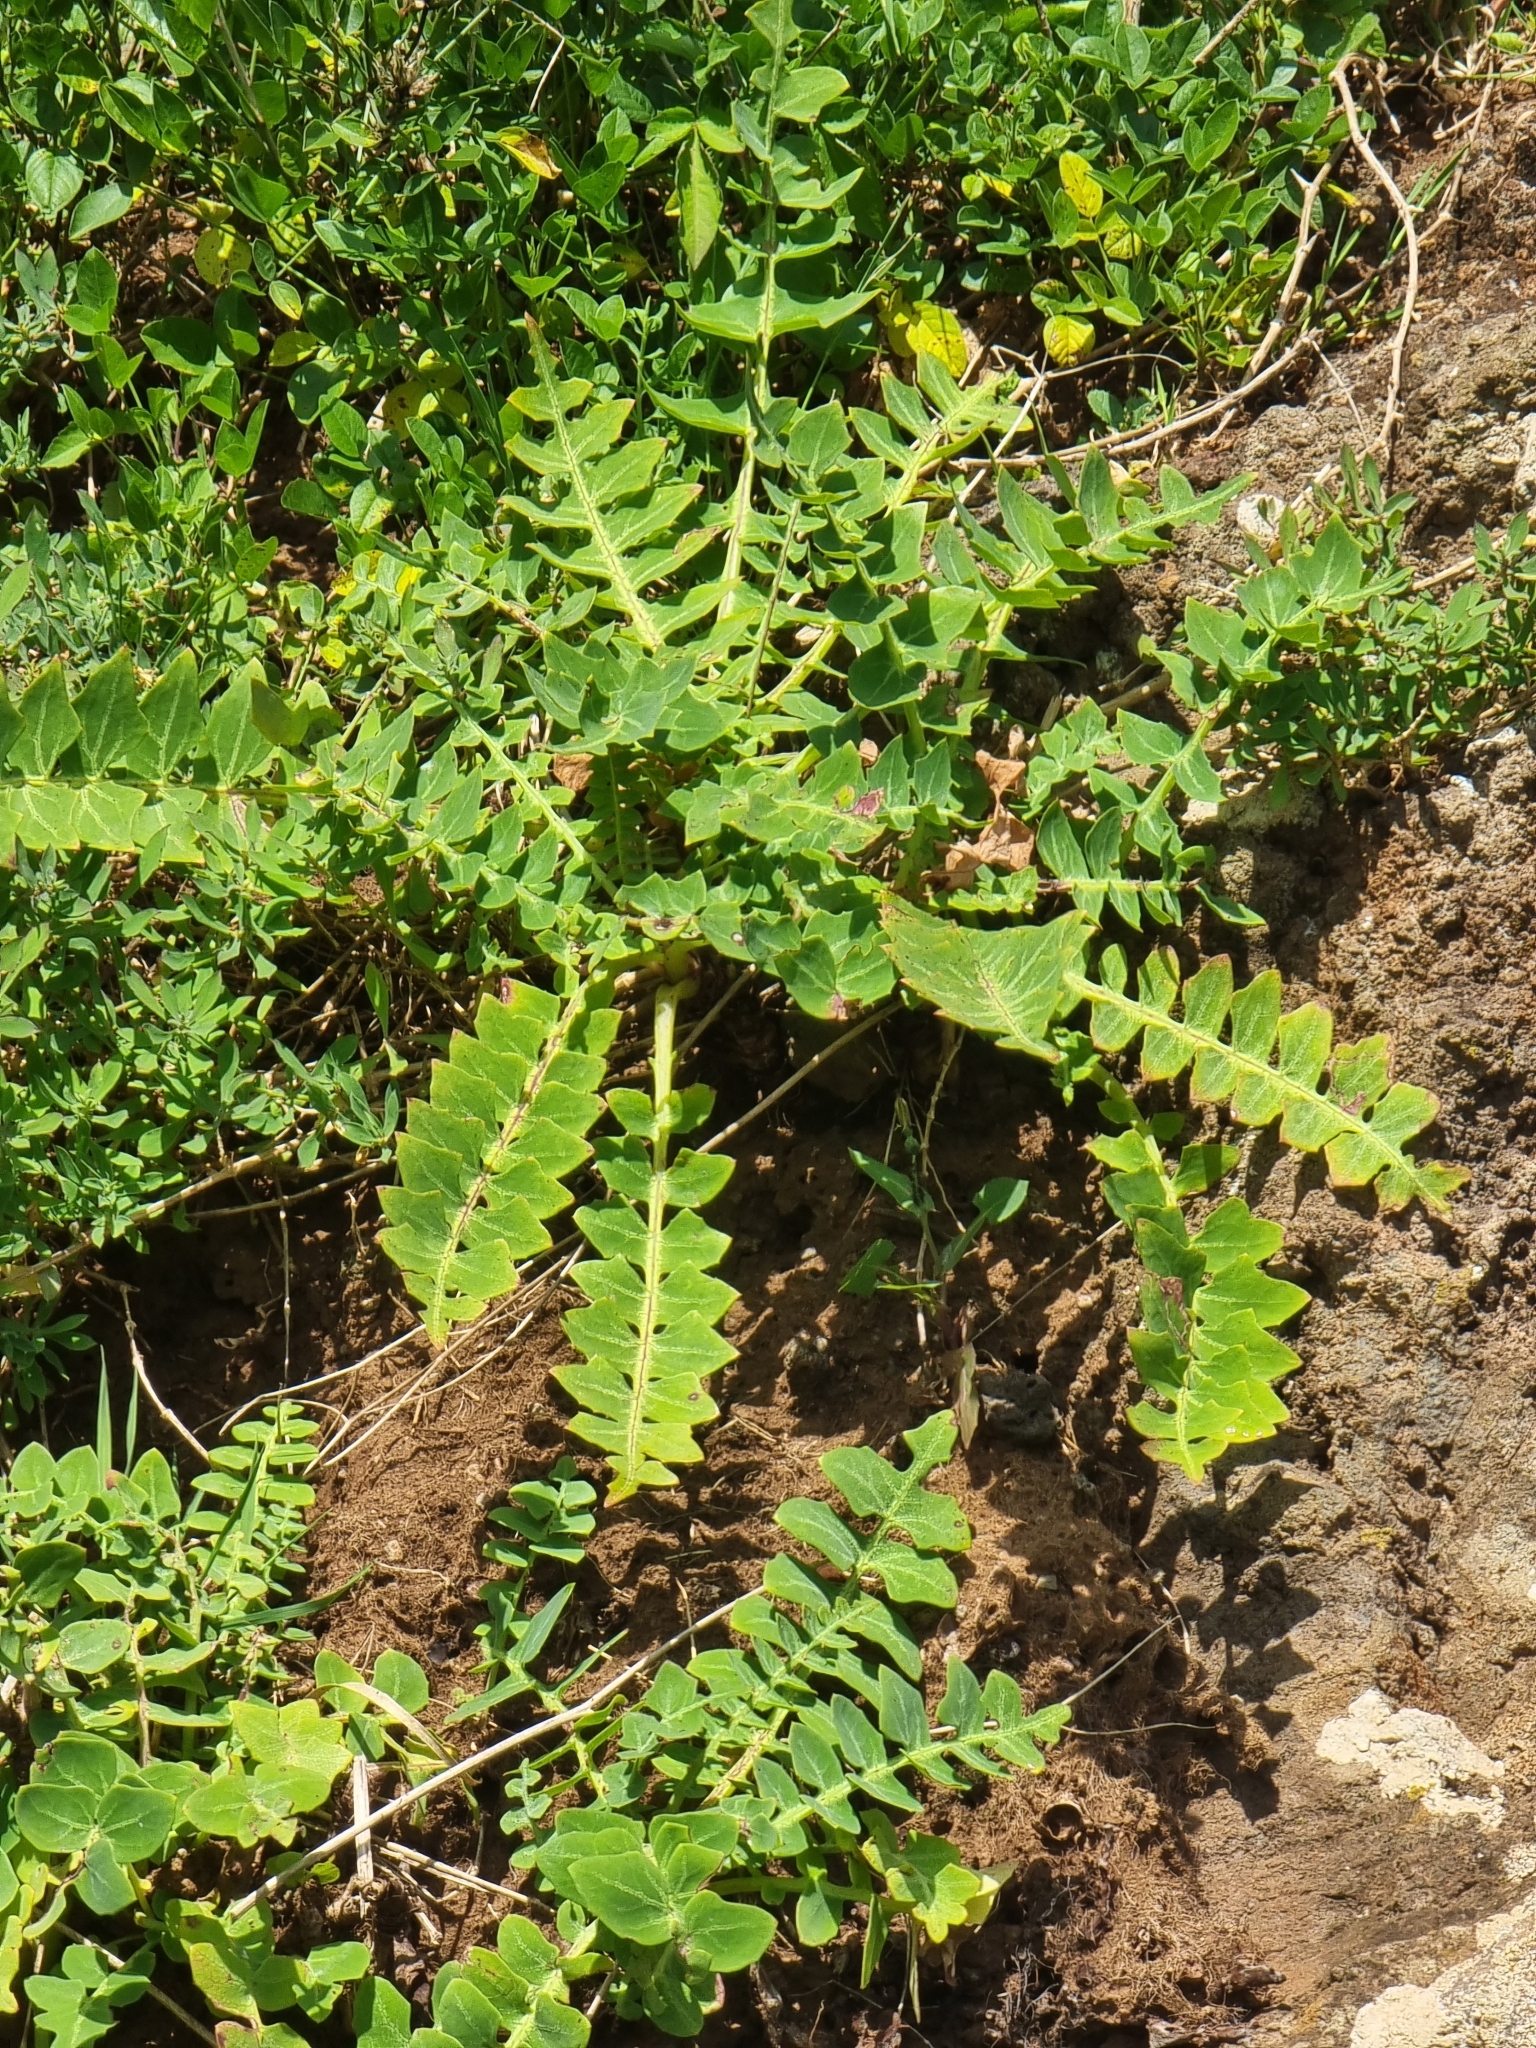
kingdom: Plantae
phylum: Tracheophyta
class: Magnoliopsida
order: Asterales
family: Asteraceae
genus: Sonchus
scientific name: Sonchus latifolius
